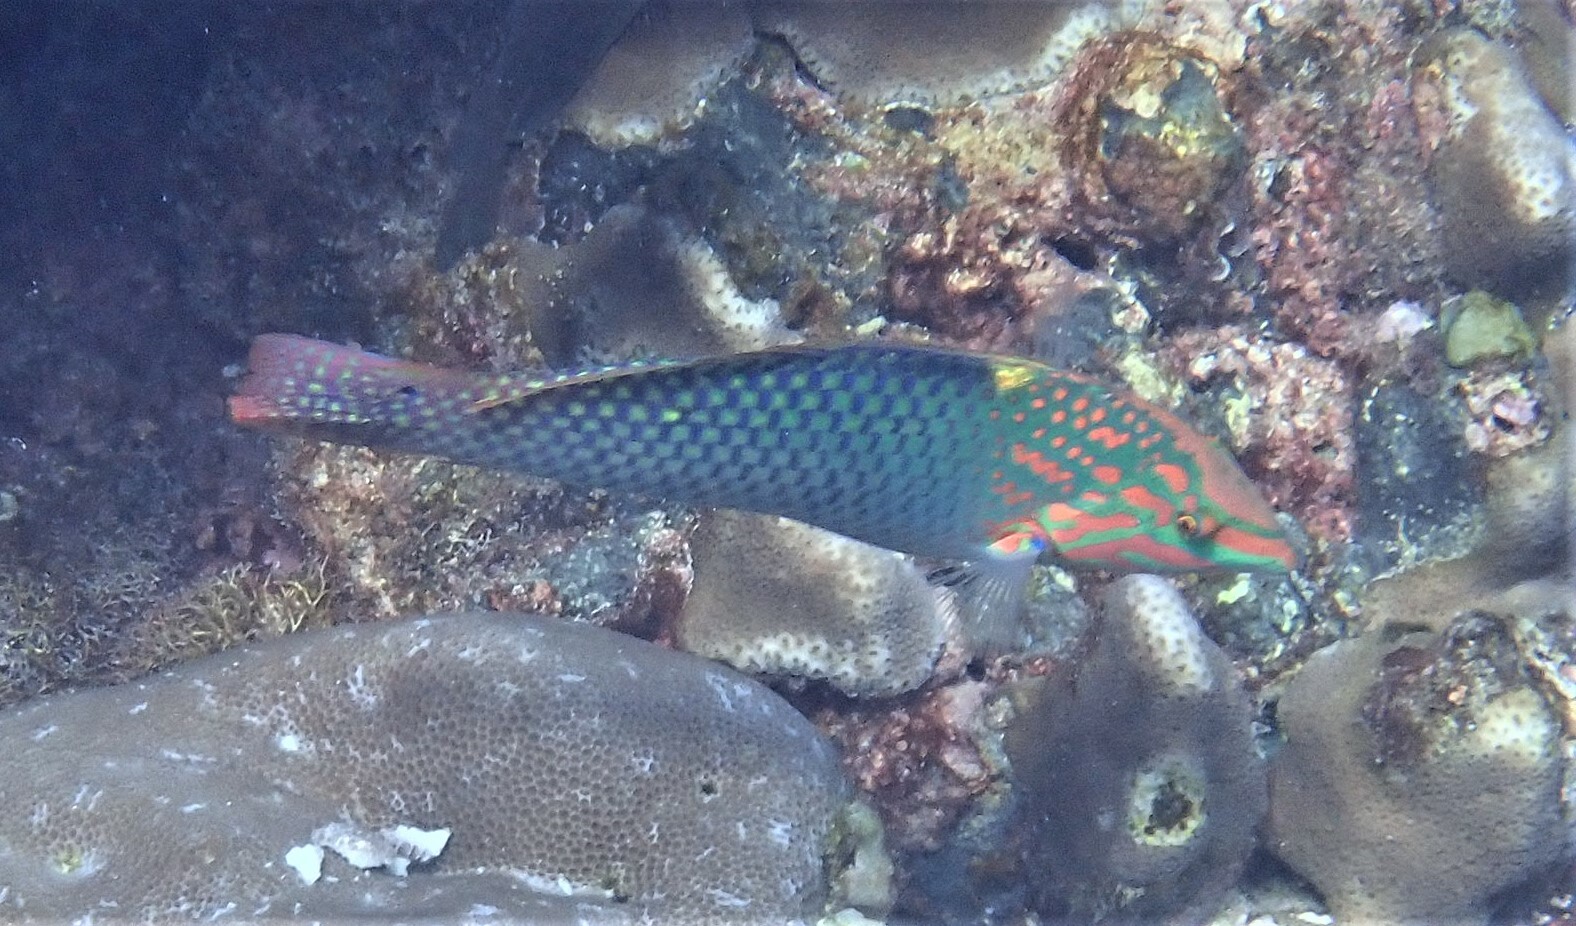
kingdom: Animalia
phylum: Chordata
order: Perciformes
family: Labridae
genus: Halichoeres
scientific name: Halichoeres hortulanus
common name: Checkerboard wrasse
